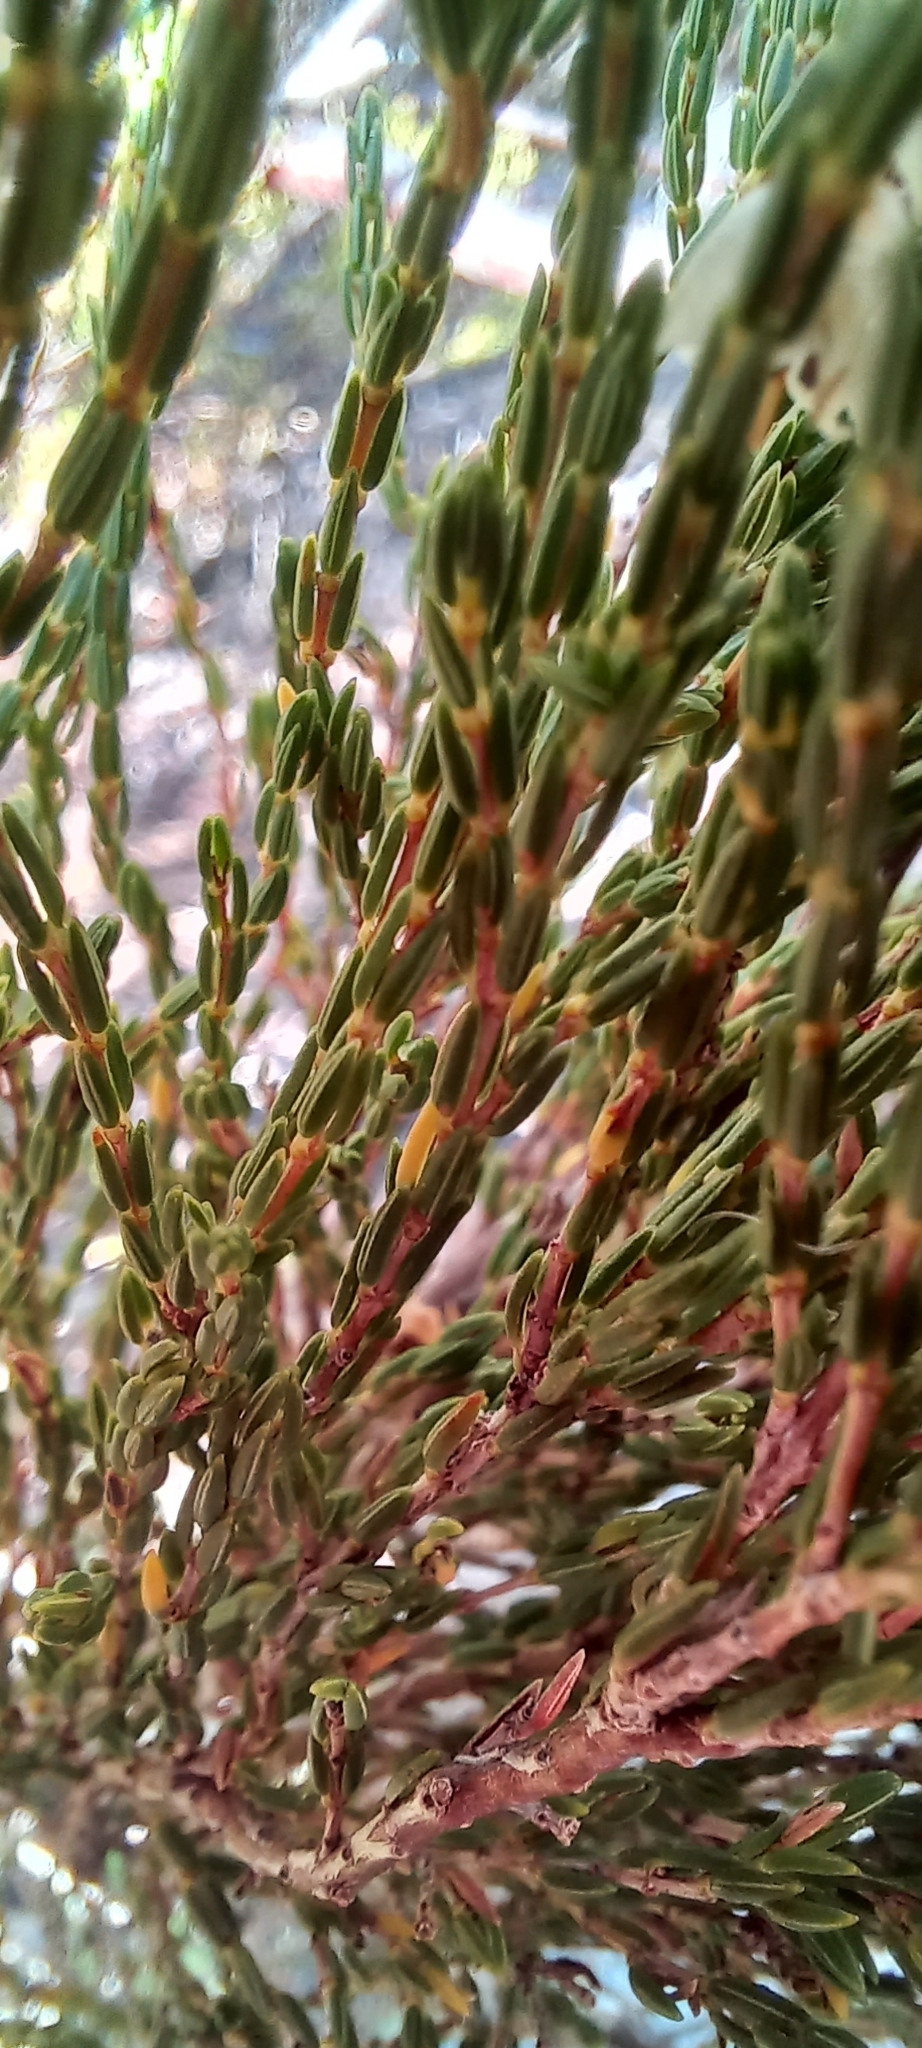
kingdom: Plantae
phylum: Tracheophyta
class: Magnoliopsida
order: Ericales
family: Ericaceae
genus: Erica
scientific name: Erica nivea
